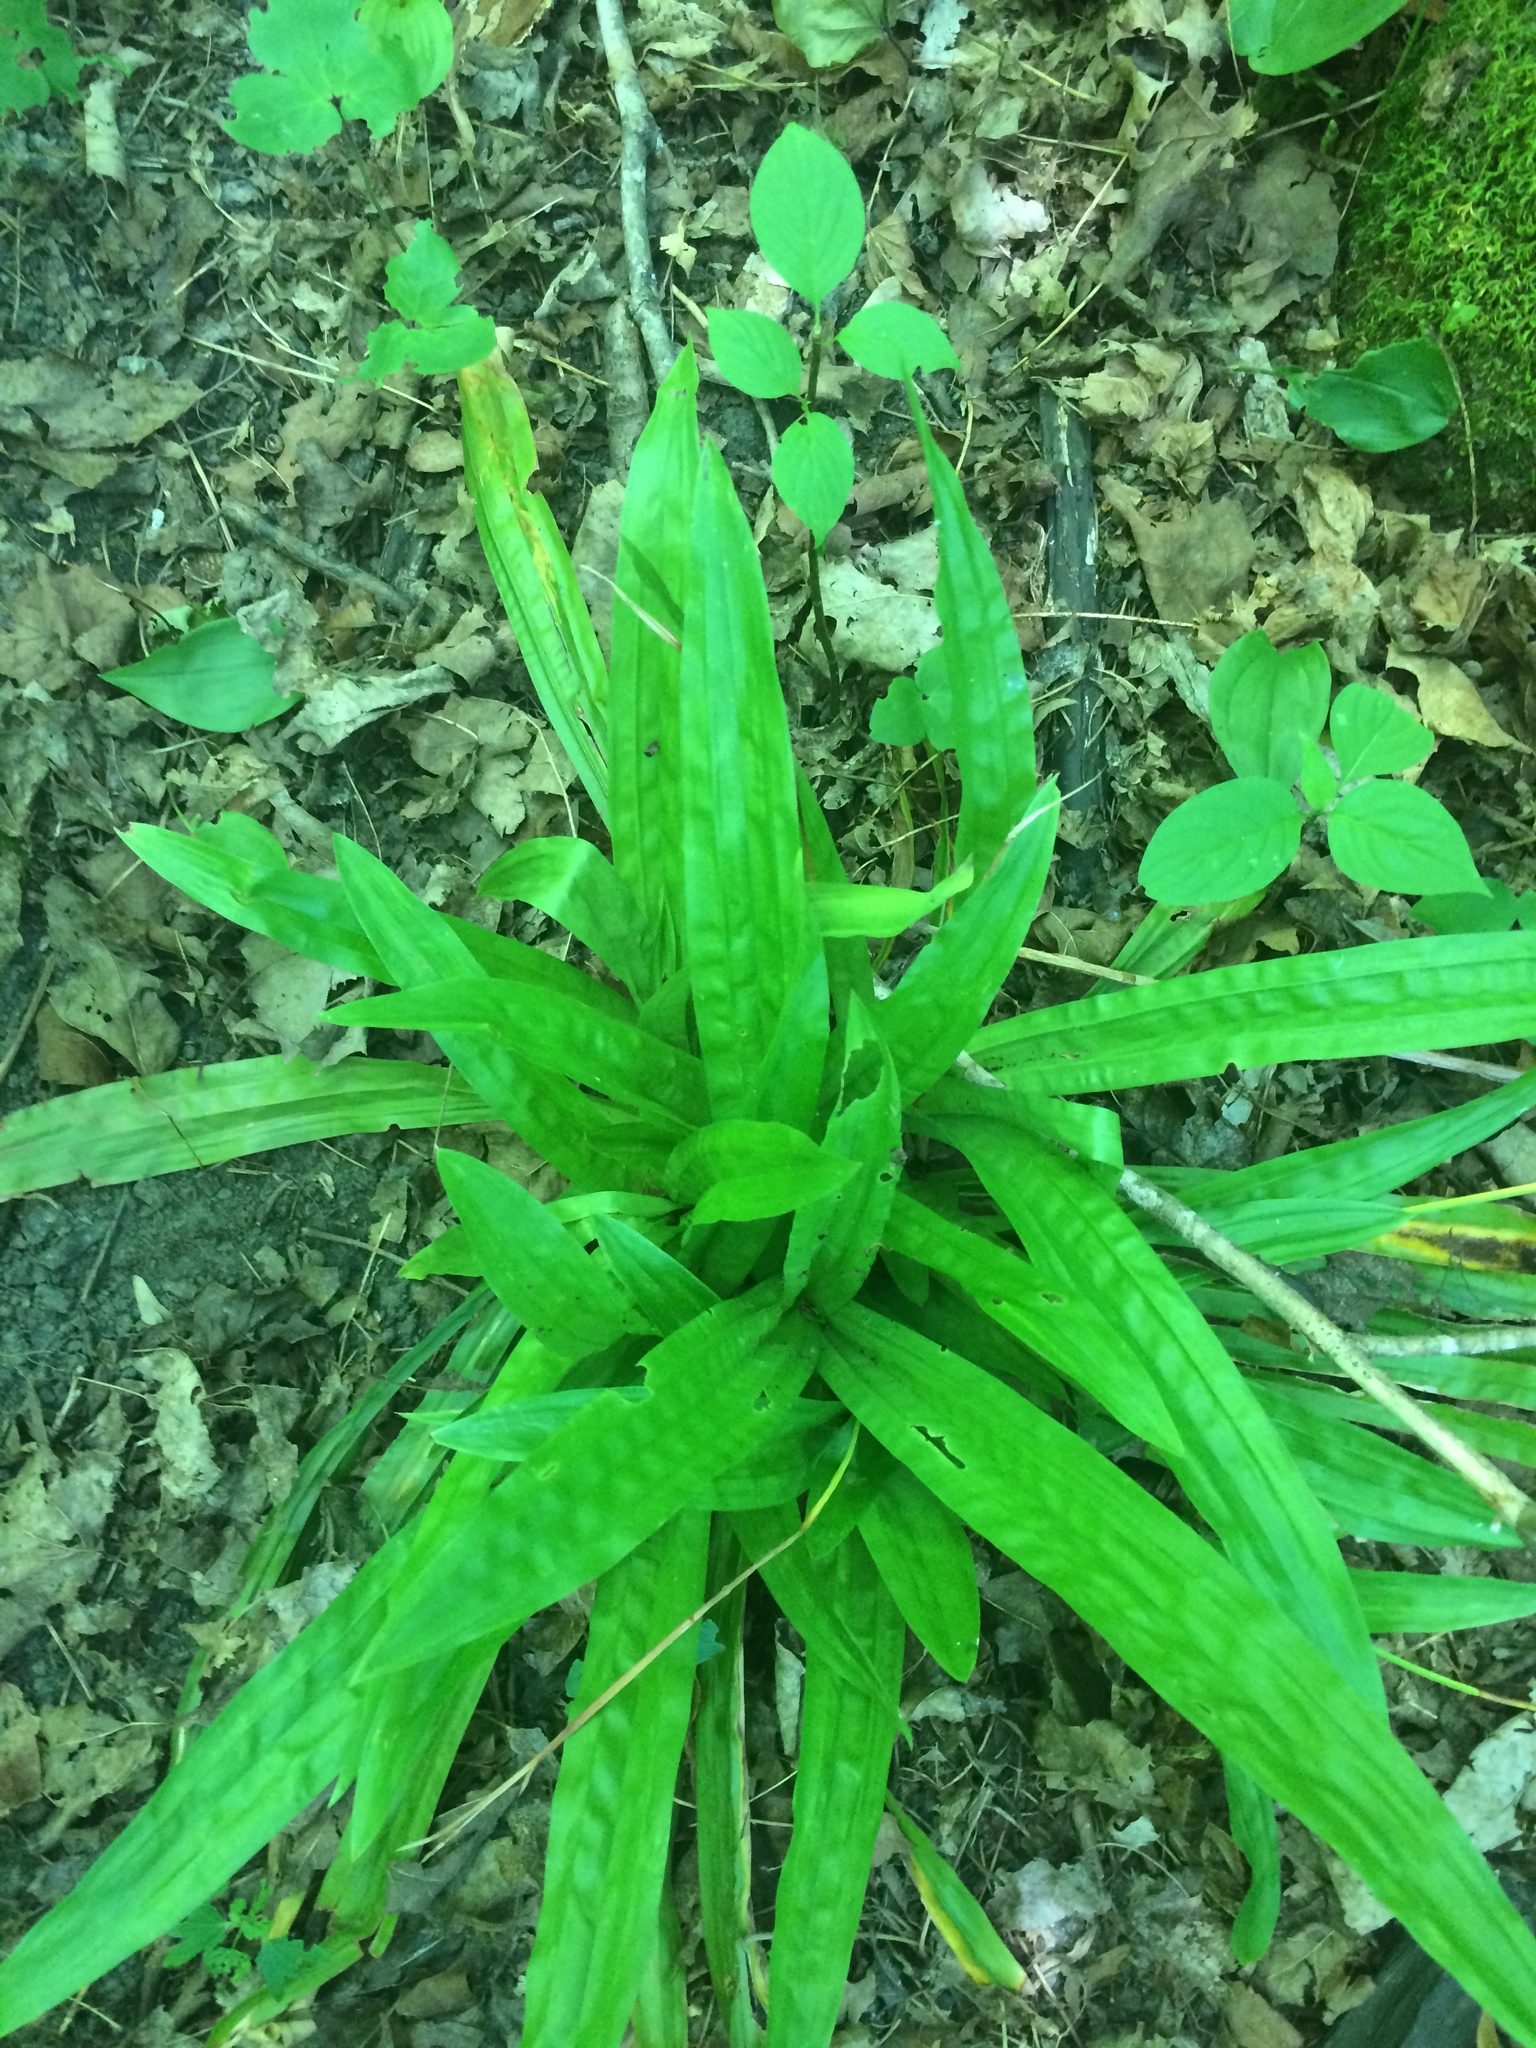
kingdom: Plantae
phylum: Tracheophyta
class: Liliopsida
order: Poales
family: Cyperaceae
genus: Carex
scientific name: Carex plantaginea
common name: Plantain-leaved sedge
